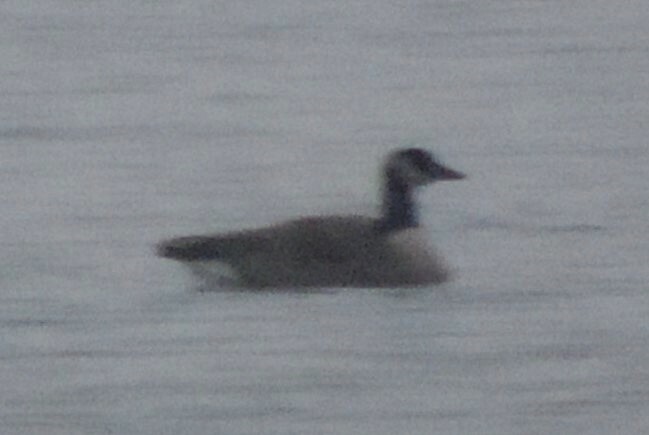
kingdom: Animalia
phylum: Chordata
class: Aves
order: Anseriformes
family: Anatidae
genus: Branta
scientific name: Branta canadensis
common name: Canada goose
